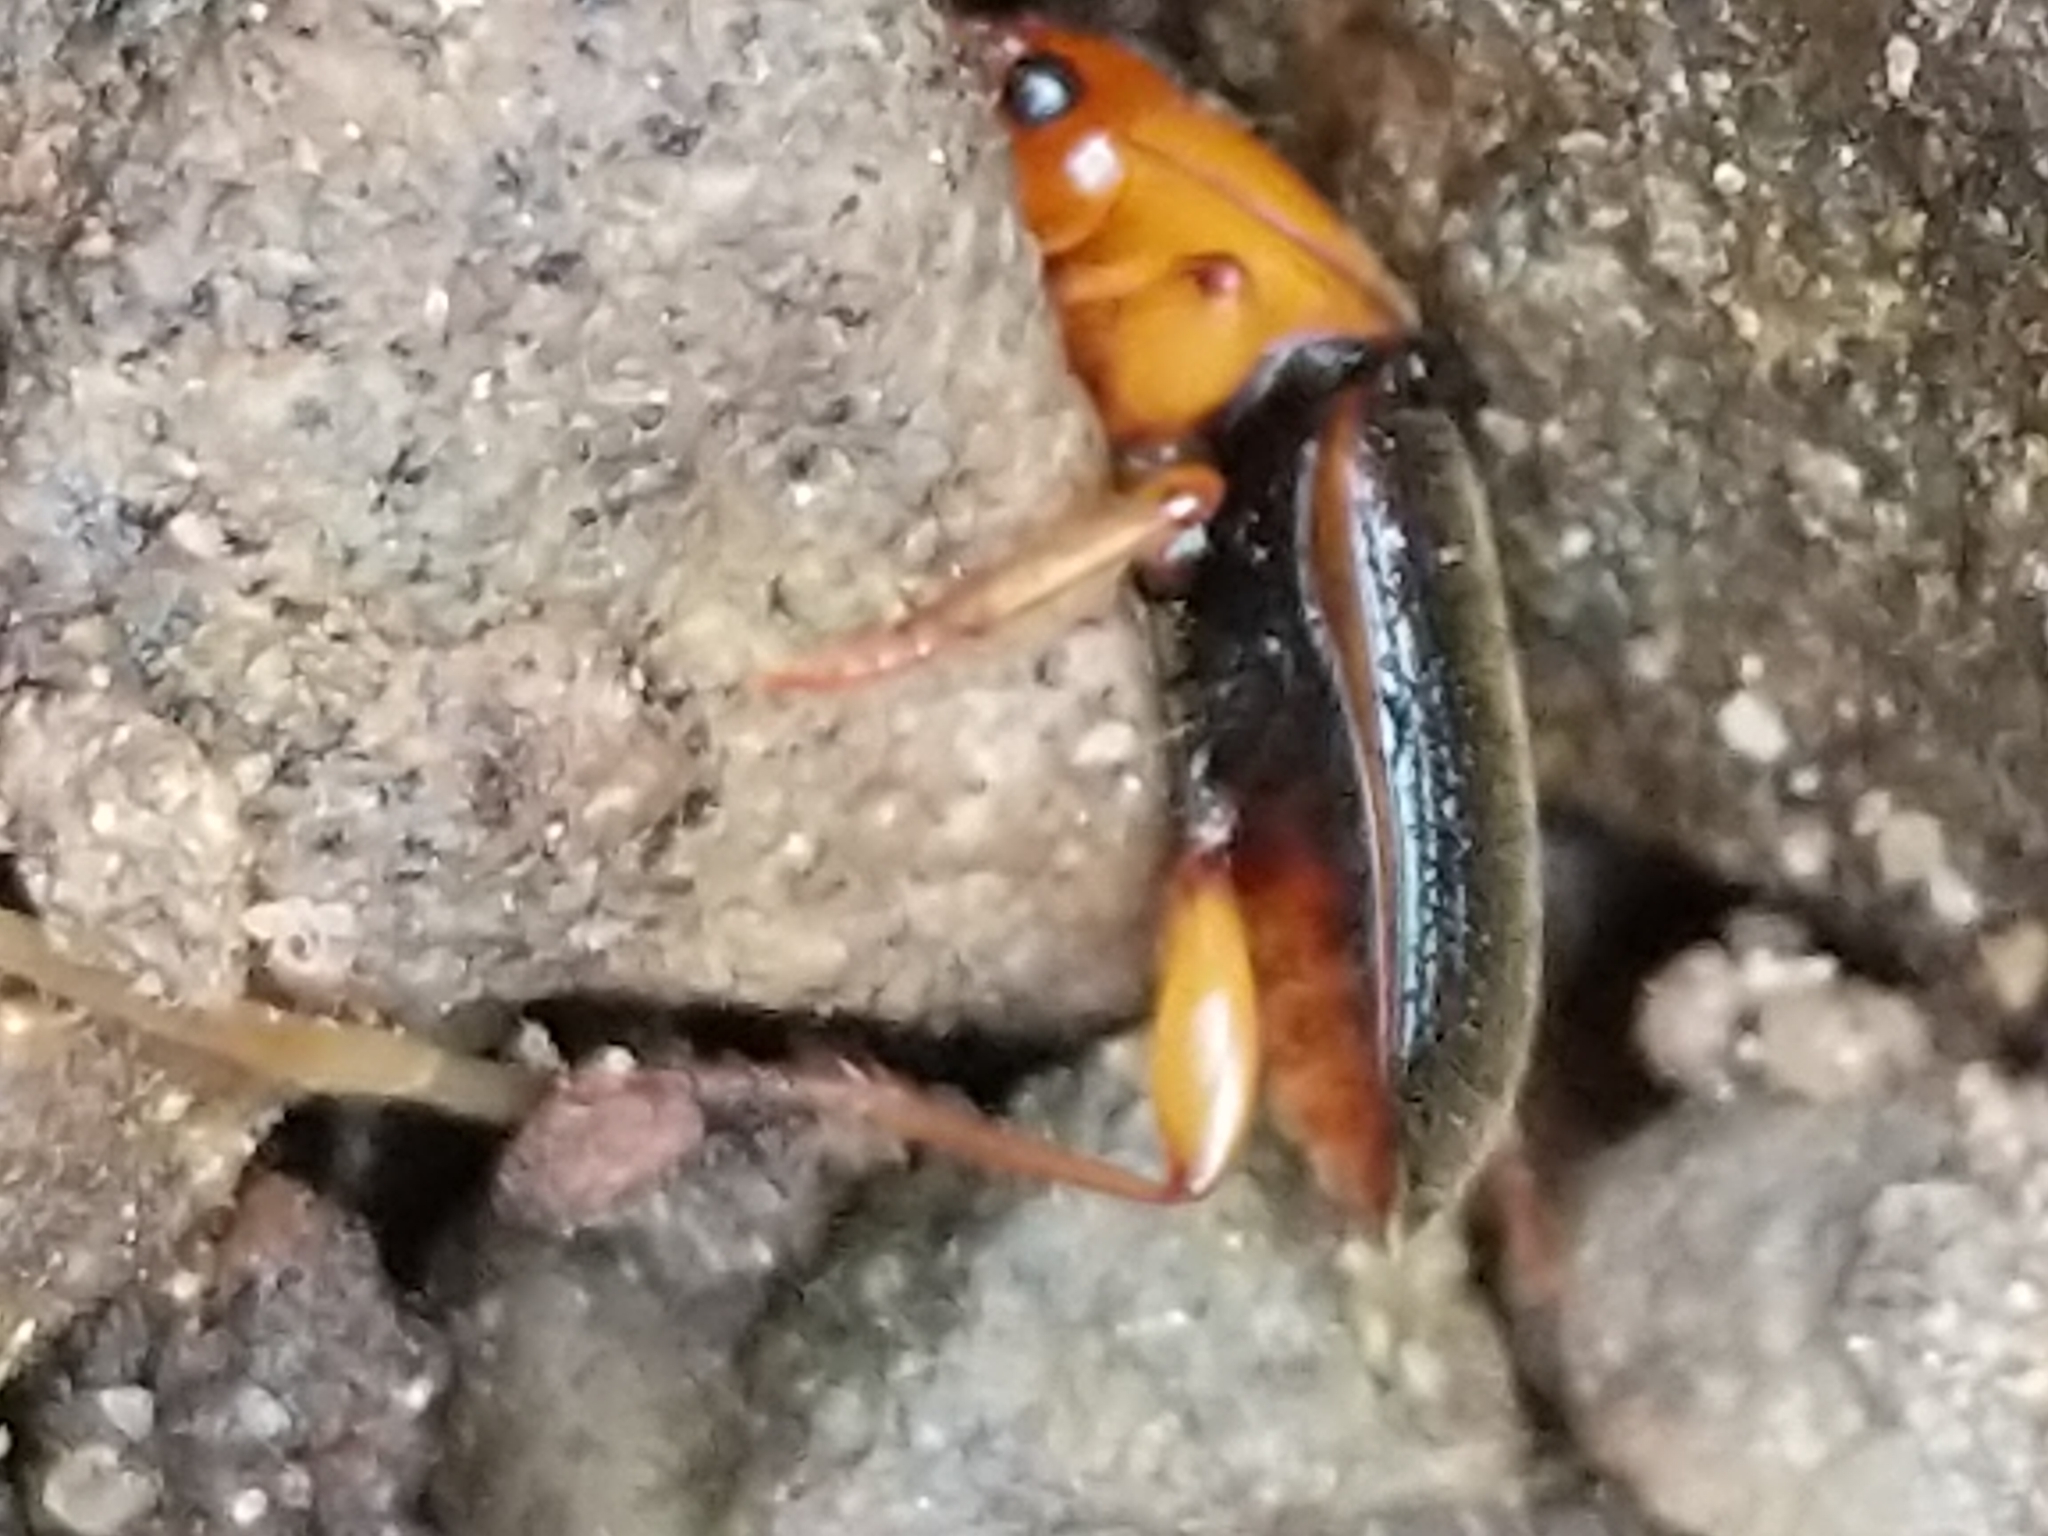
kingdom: Animalia
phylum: Arthropoda
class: Insecta
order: Coleoptera
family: Carabidae
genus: Amphasia
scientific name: Amphasia interstitialis
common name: Red-headed ground beetle
